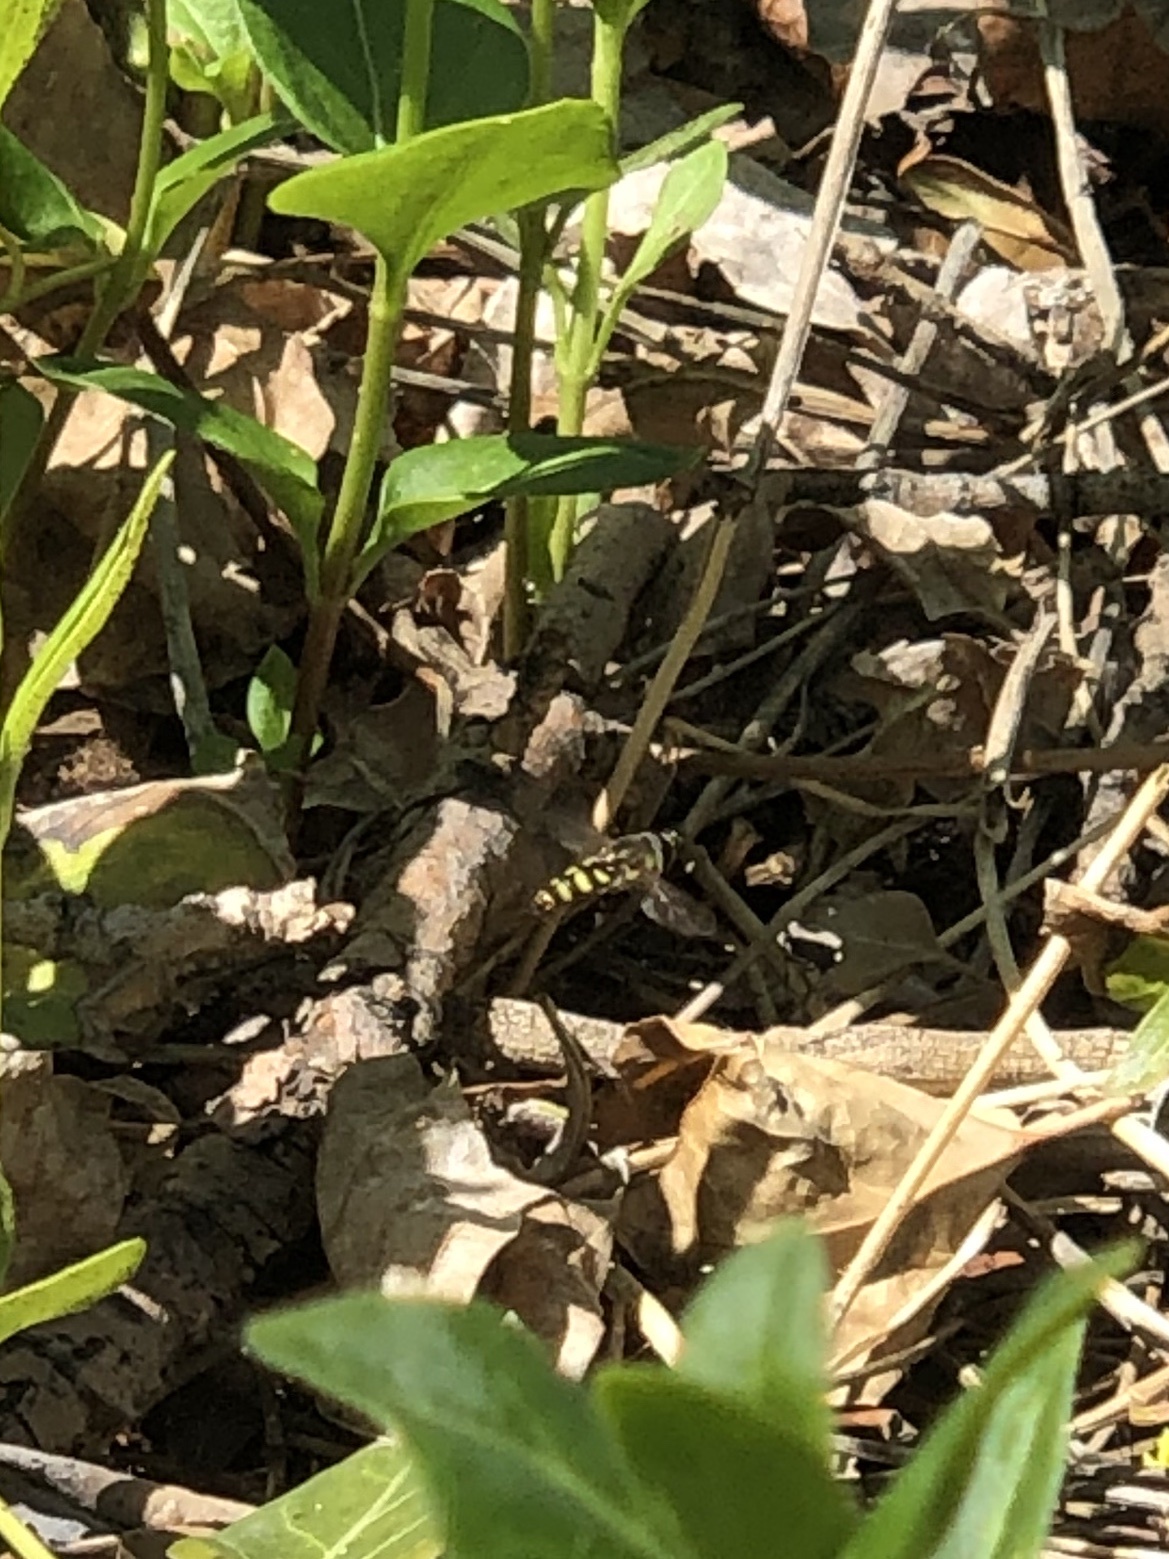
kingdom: Animalia
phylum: Arthropoda
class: Insecta
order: Diptera
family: Syrphidae
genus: Eupeodes
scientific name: Eupeodes fumipennis
